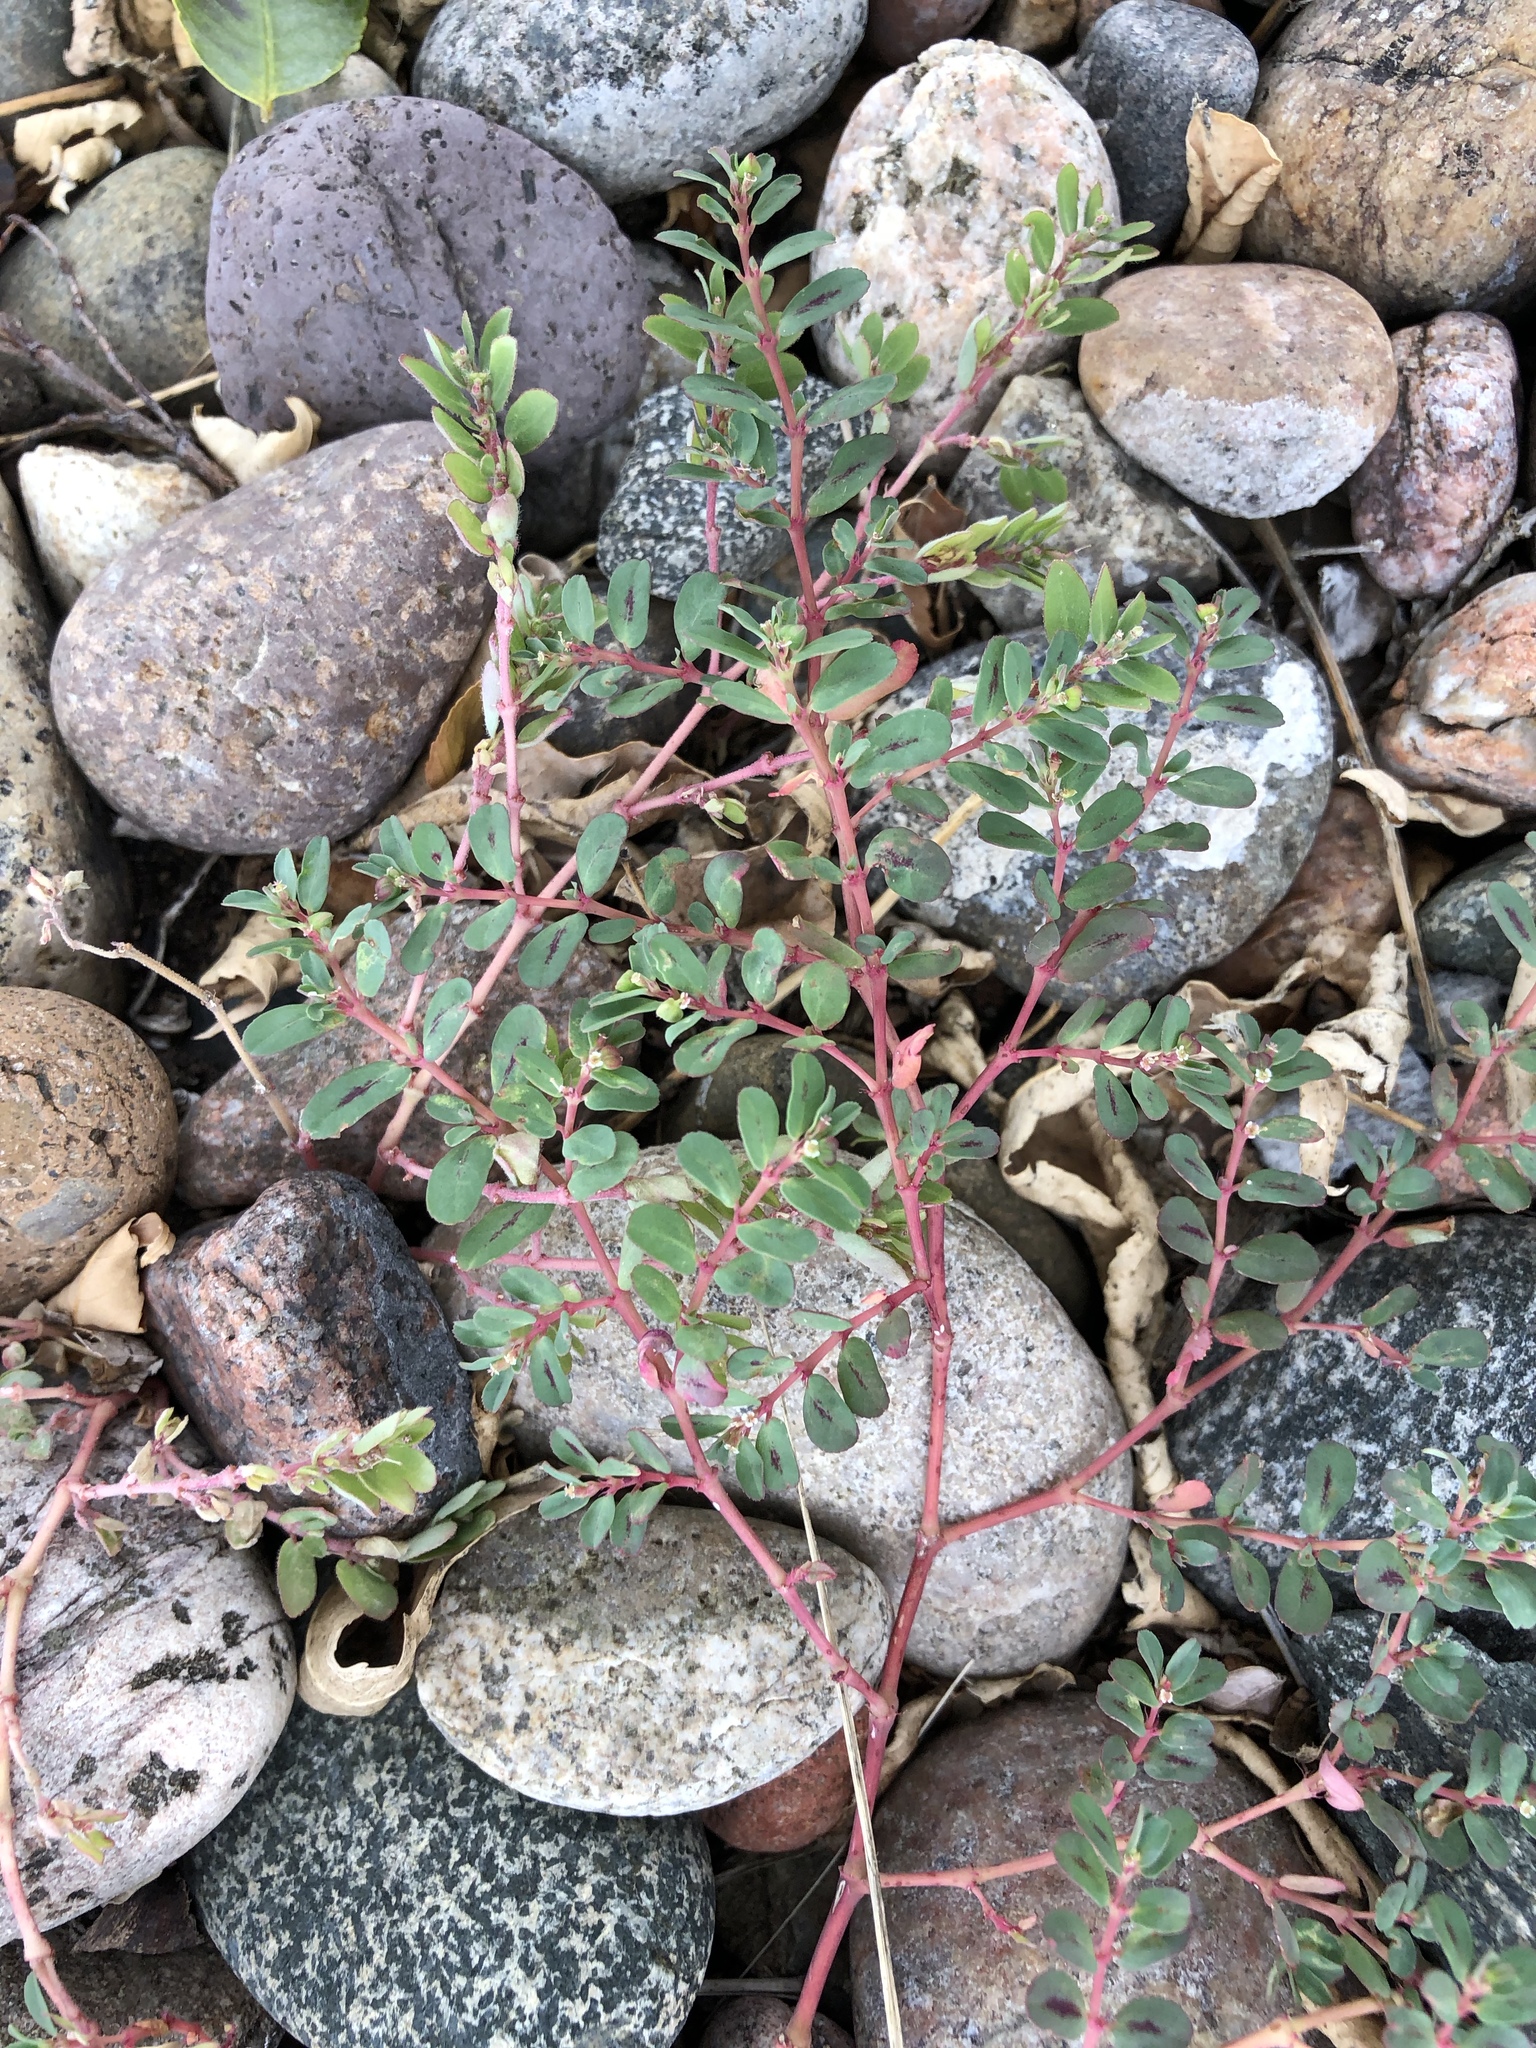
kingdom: Plantae
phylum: Tracheophyta
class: Magnoliopsida
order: Malpighiales
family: Euphorbiaceae
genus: Euphorbia
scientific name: Euphorbia serpillifolia
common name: Thyme-leaf spurge
